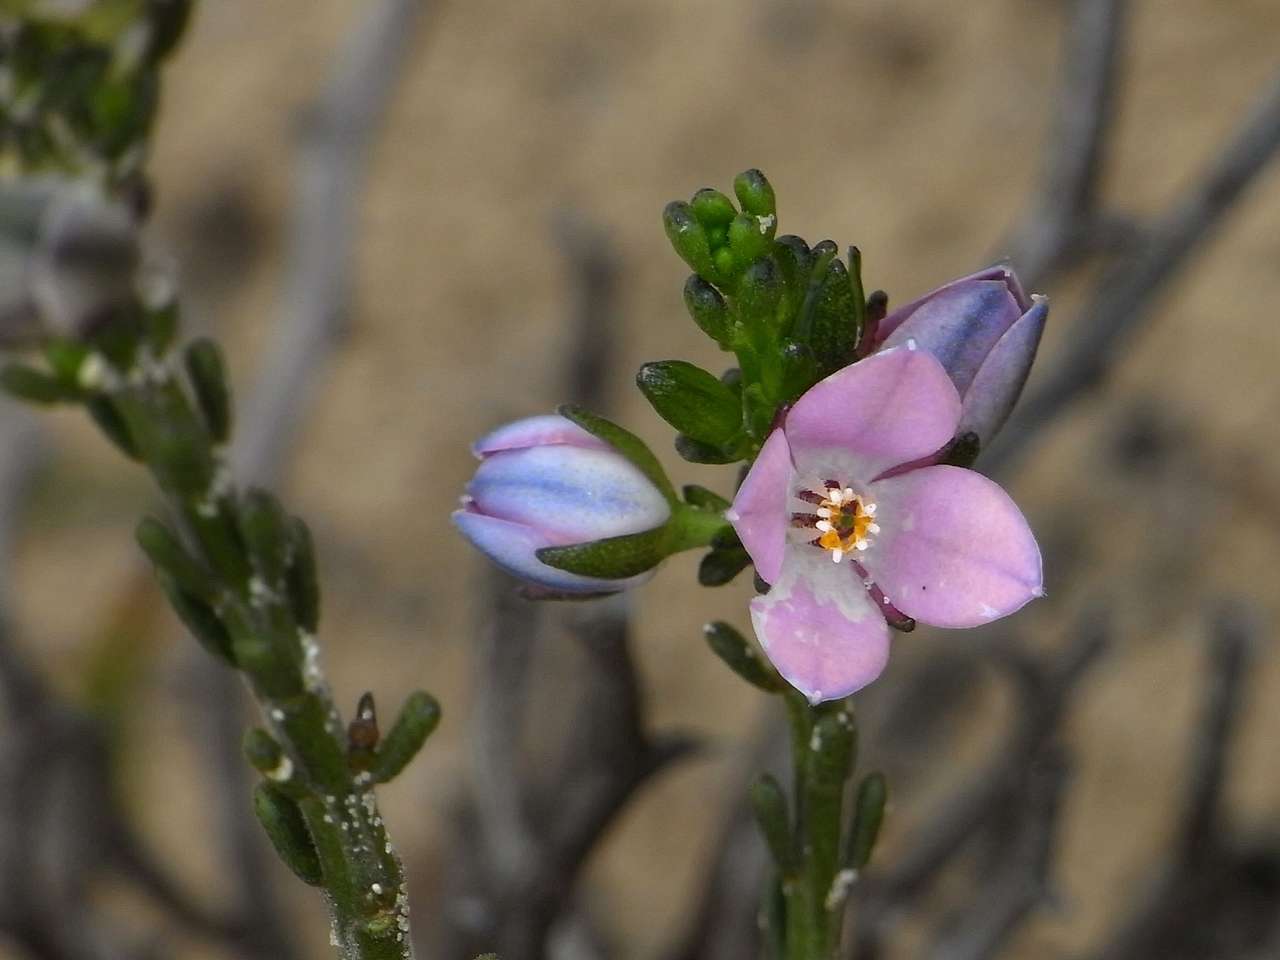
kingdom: Plantae
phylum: Tracheophyta
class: Magnoliopsida
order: Sapindales
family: Rutaceae
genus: Cyanothamnus
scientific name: Cyanothamnus coerulescens
